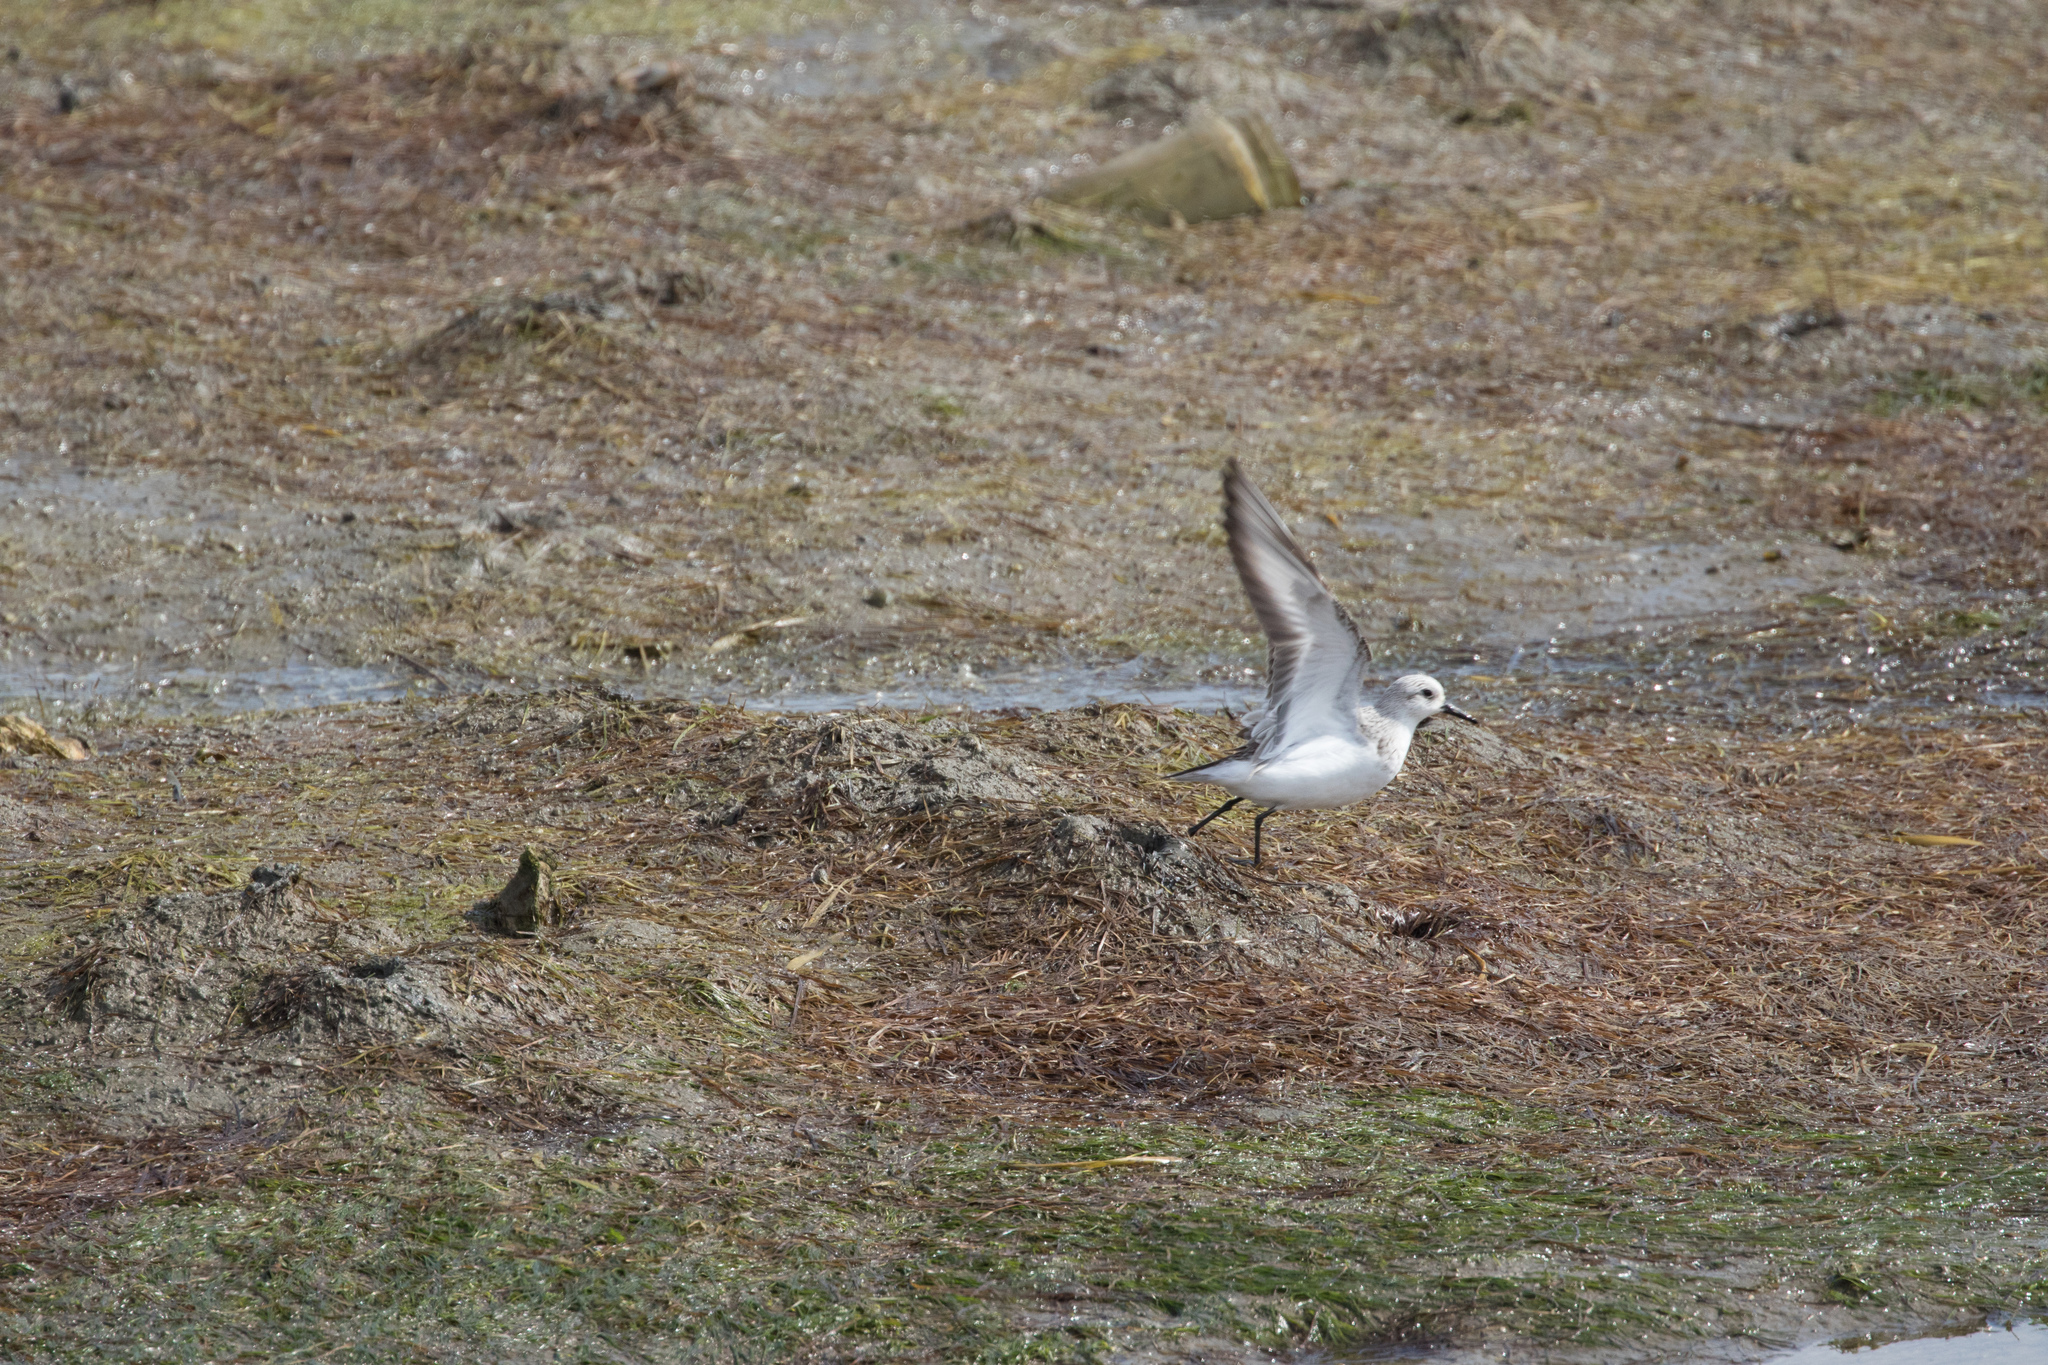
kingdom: Animalia
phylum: Chordata
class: Aves
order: Charadriiformes
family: Scolopacidae
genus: Calidris
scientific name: Calidris alba
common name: Sanderling
